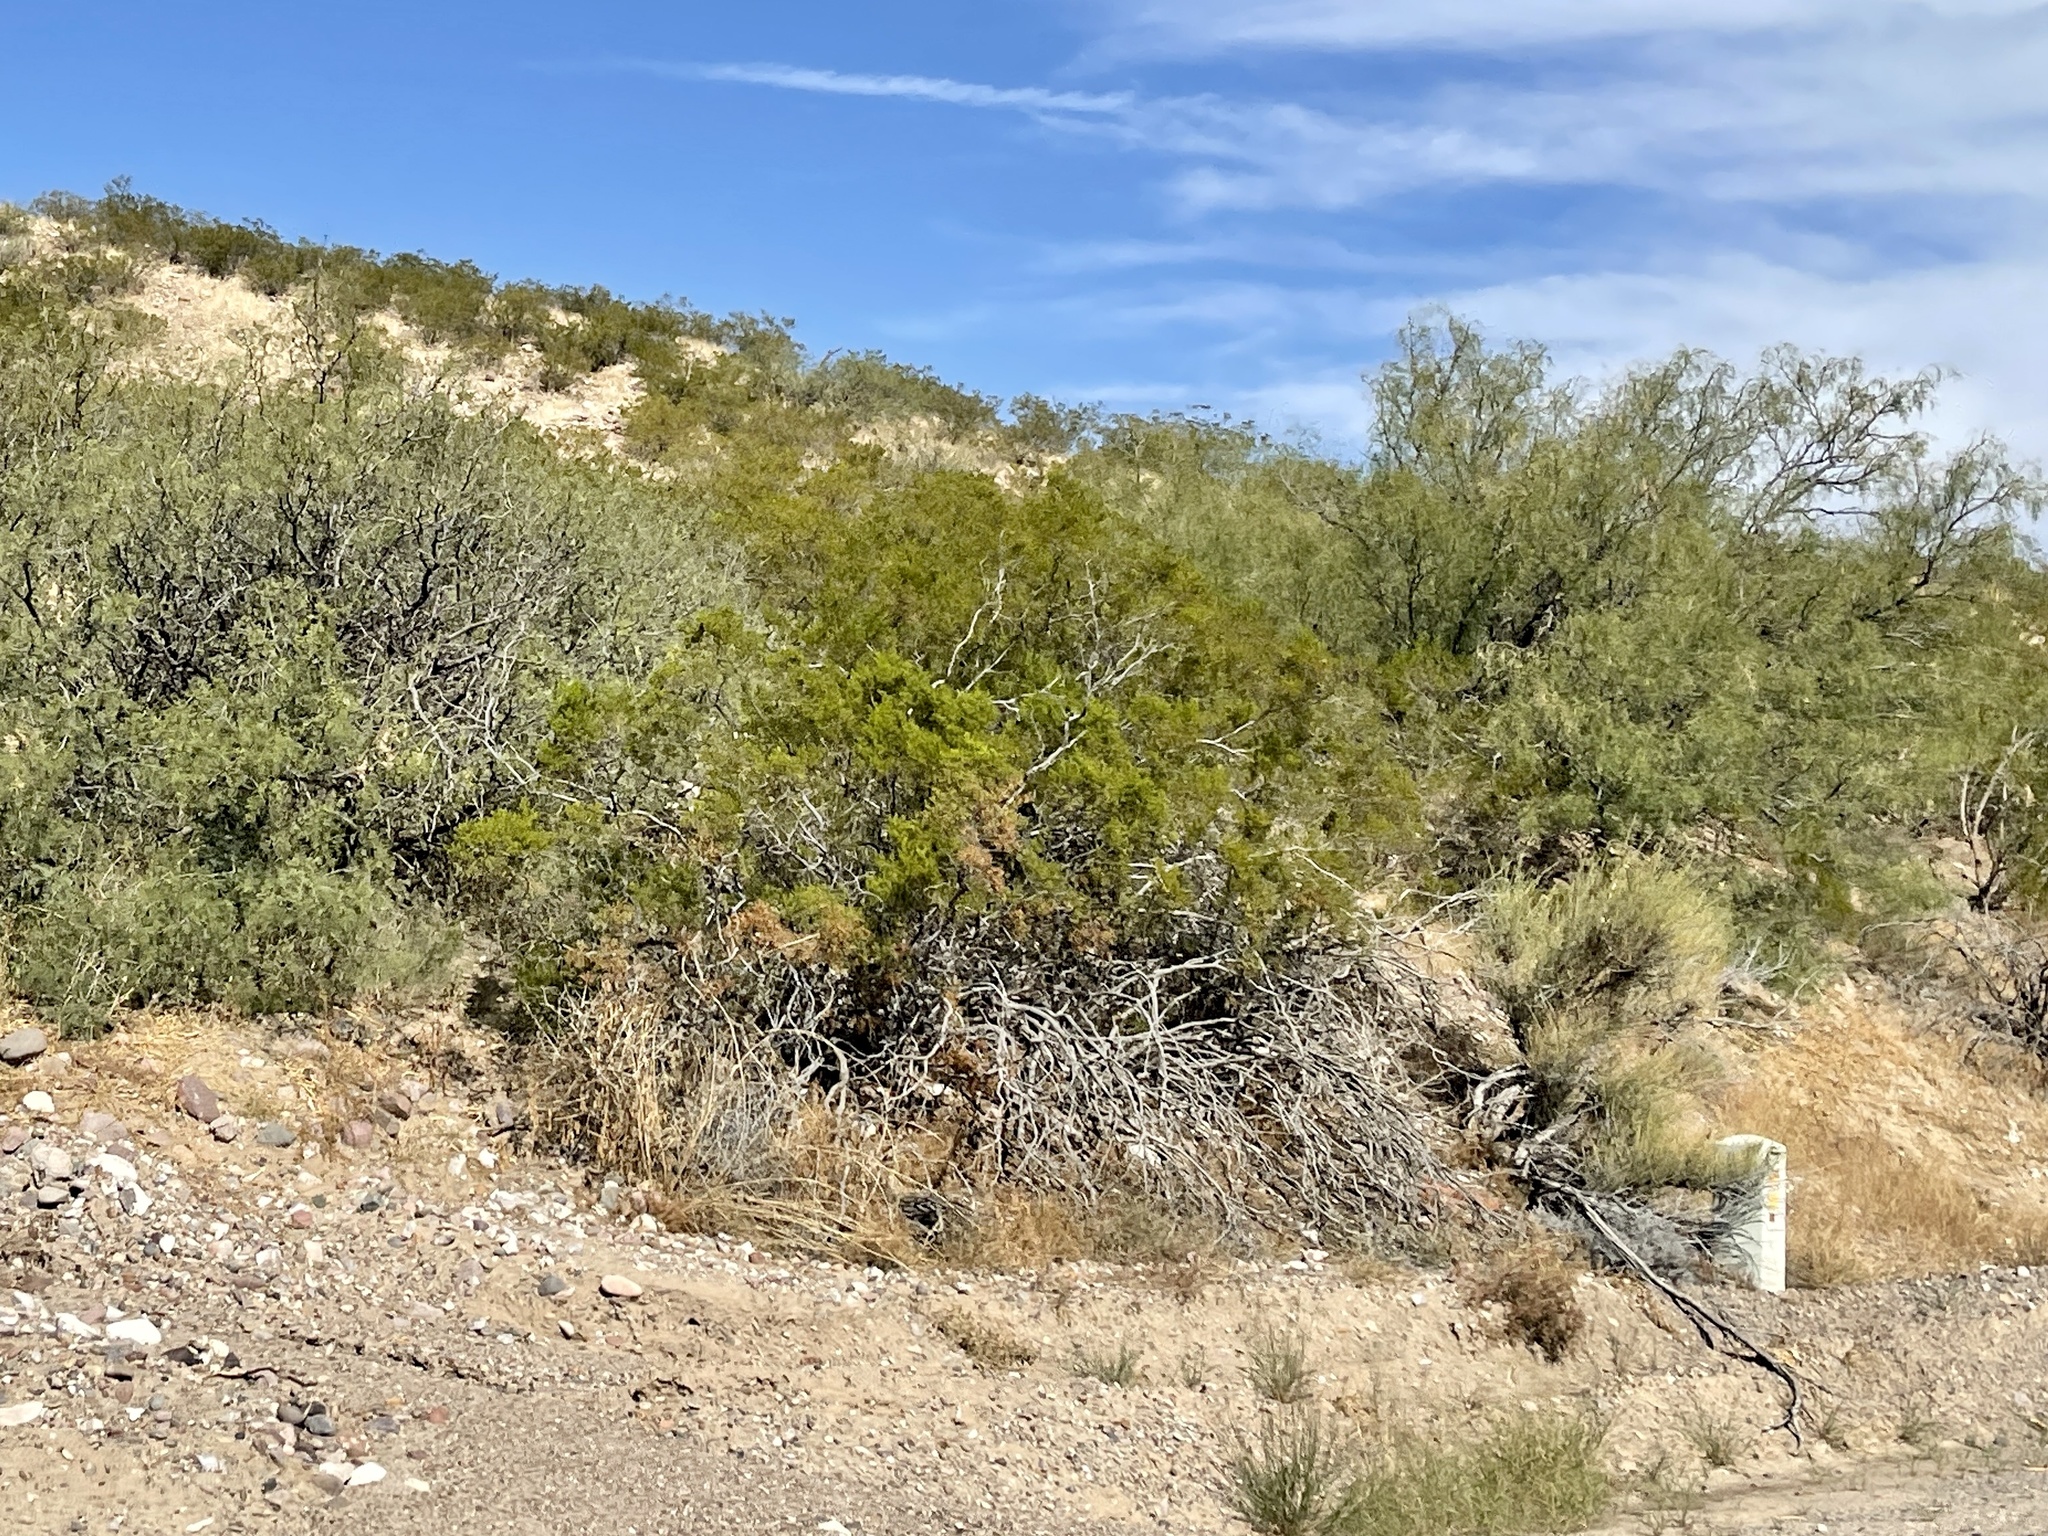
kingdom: Plantae
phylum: Tracheophyta
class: Magnoliopsida
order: Zygophyllales
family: Zygophyllaceae
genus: Larrea
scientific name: Larrea tridentata
